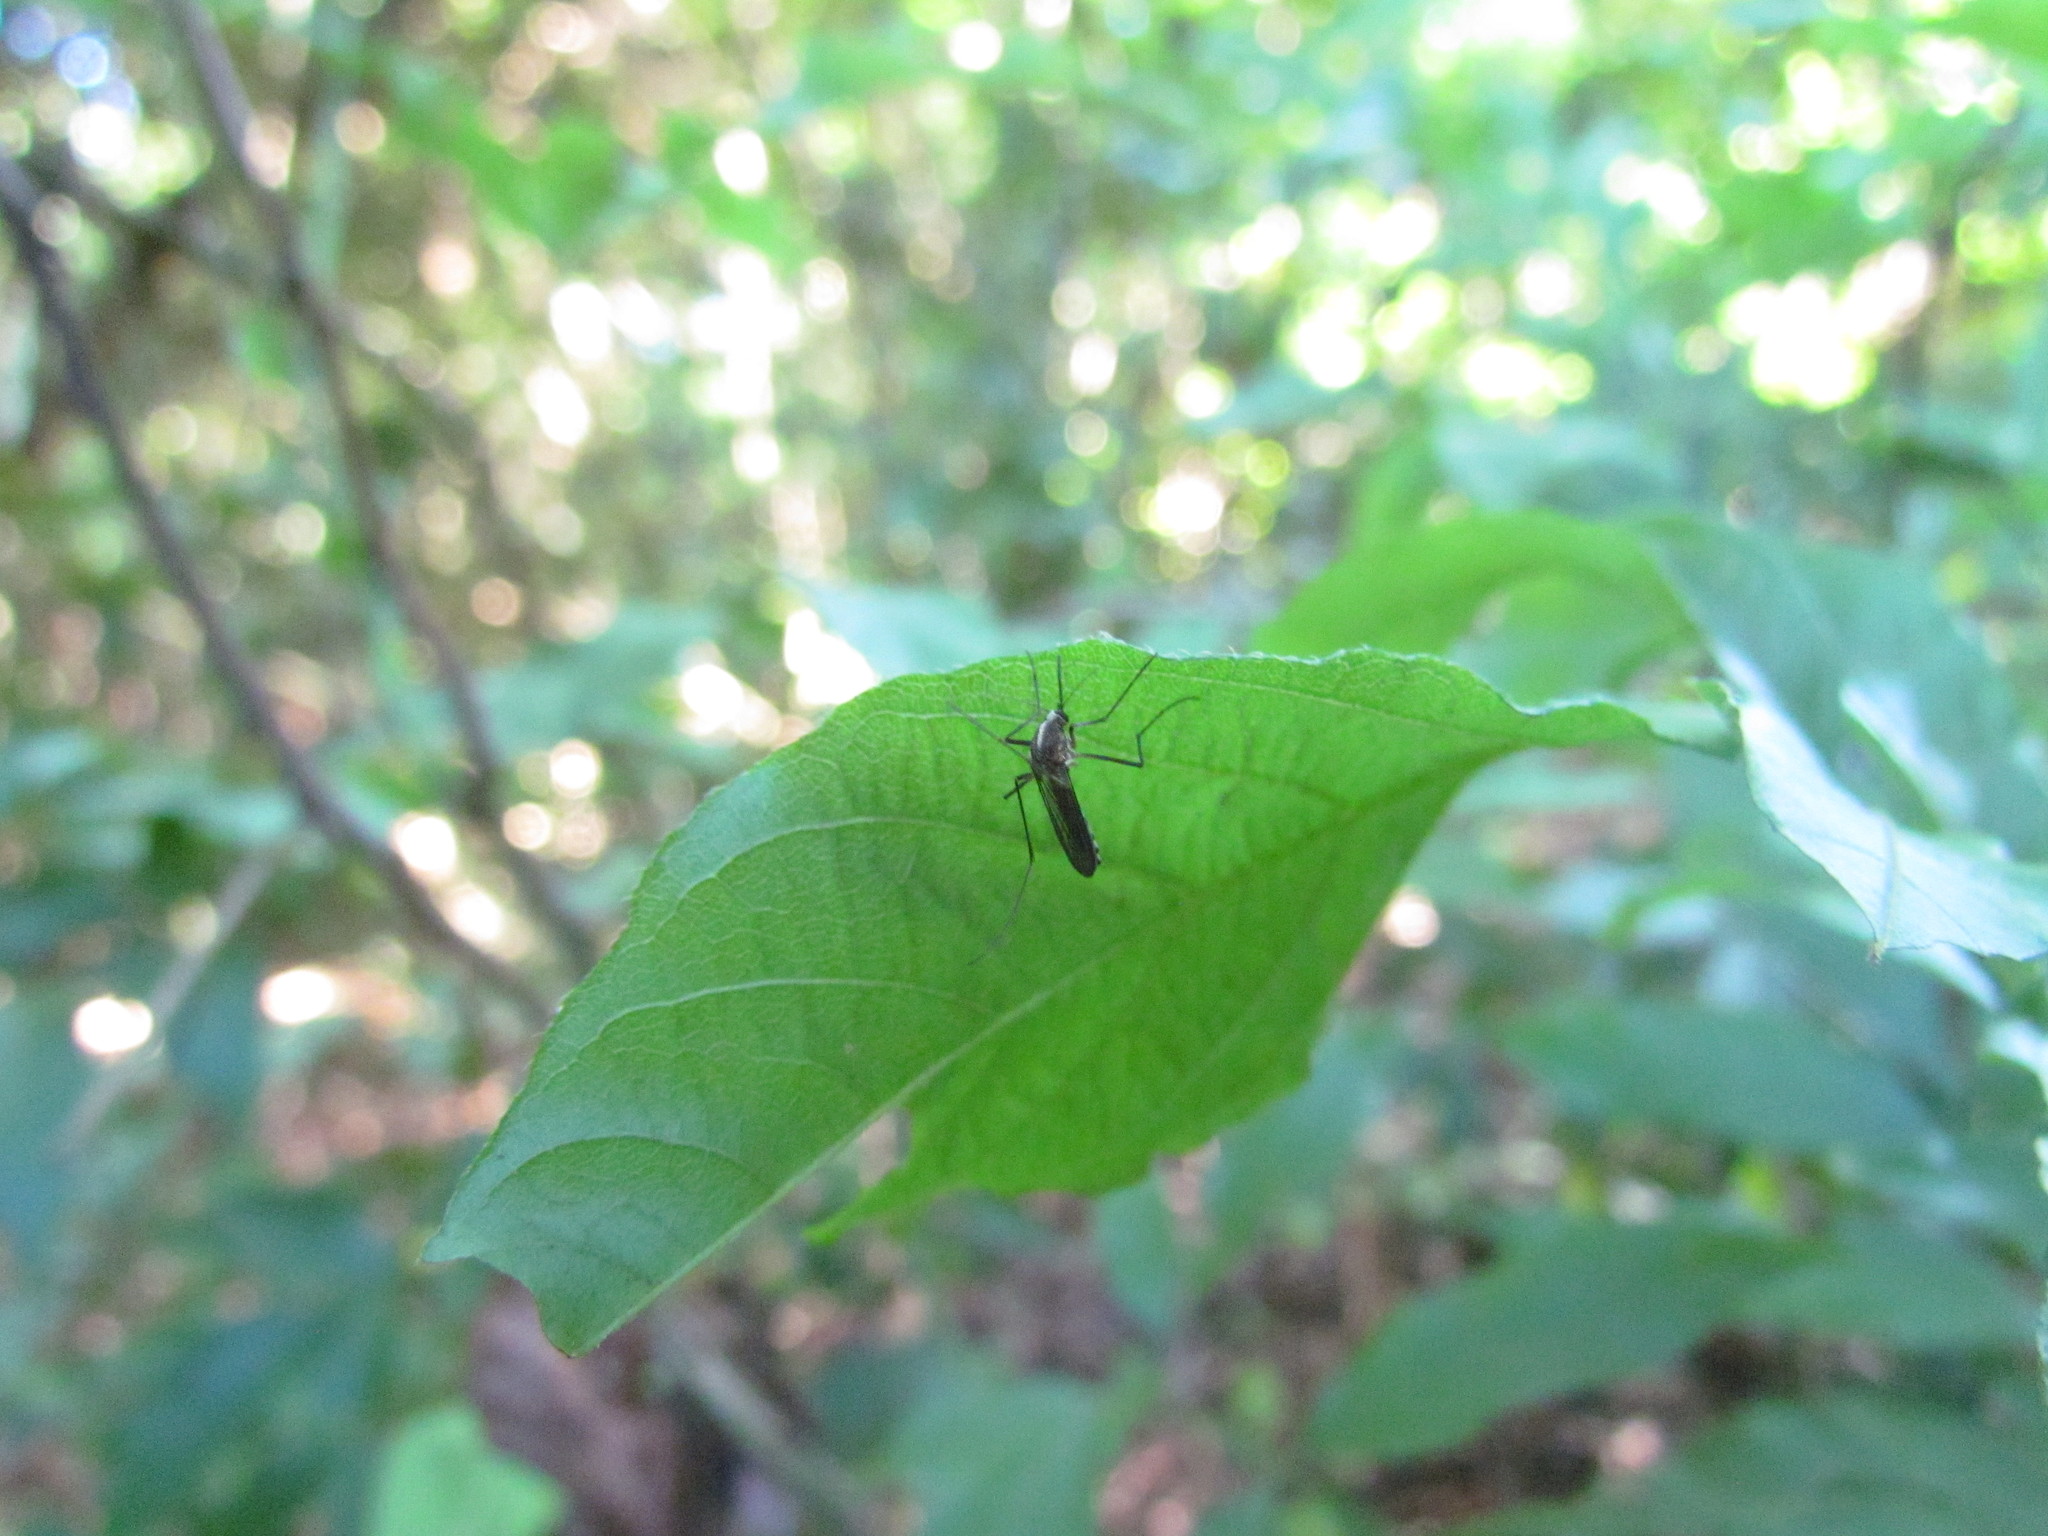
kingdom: Animalia
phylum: Arthropoda
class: Insecta
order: Diptera
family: Culicidae
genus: Aedes
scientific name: Aedes serratus
